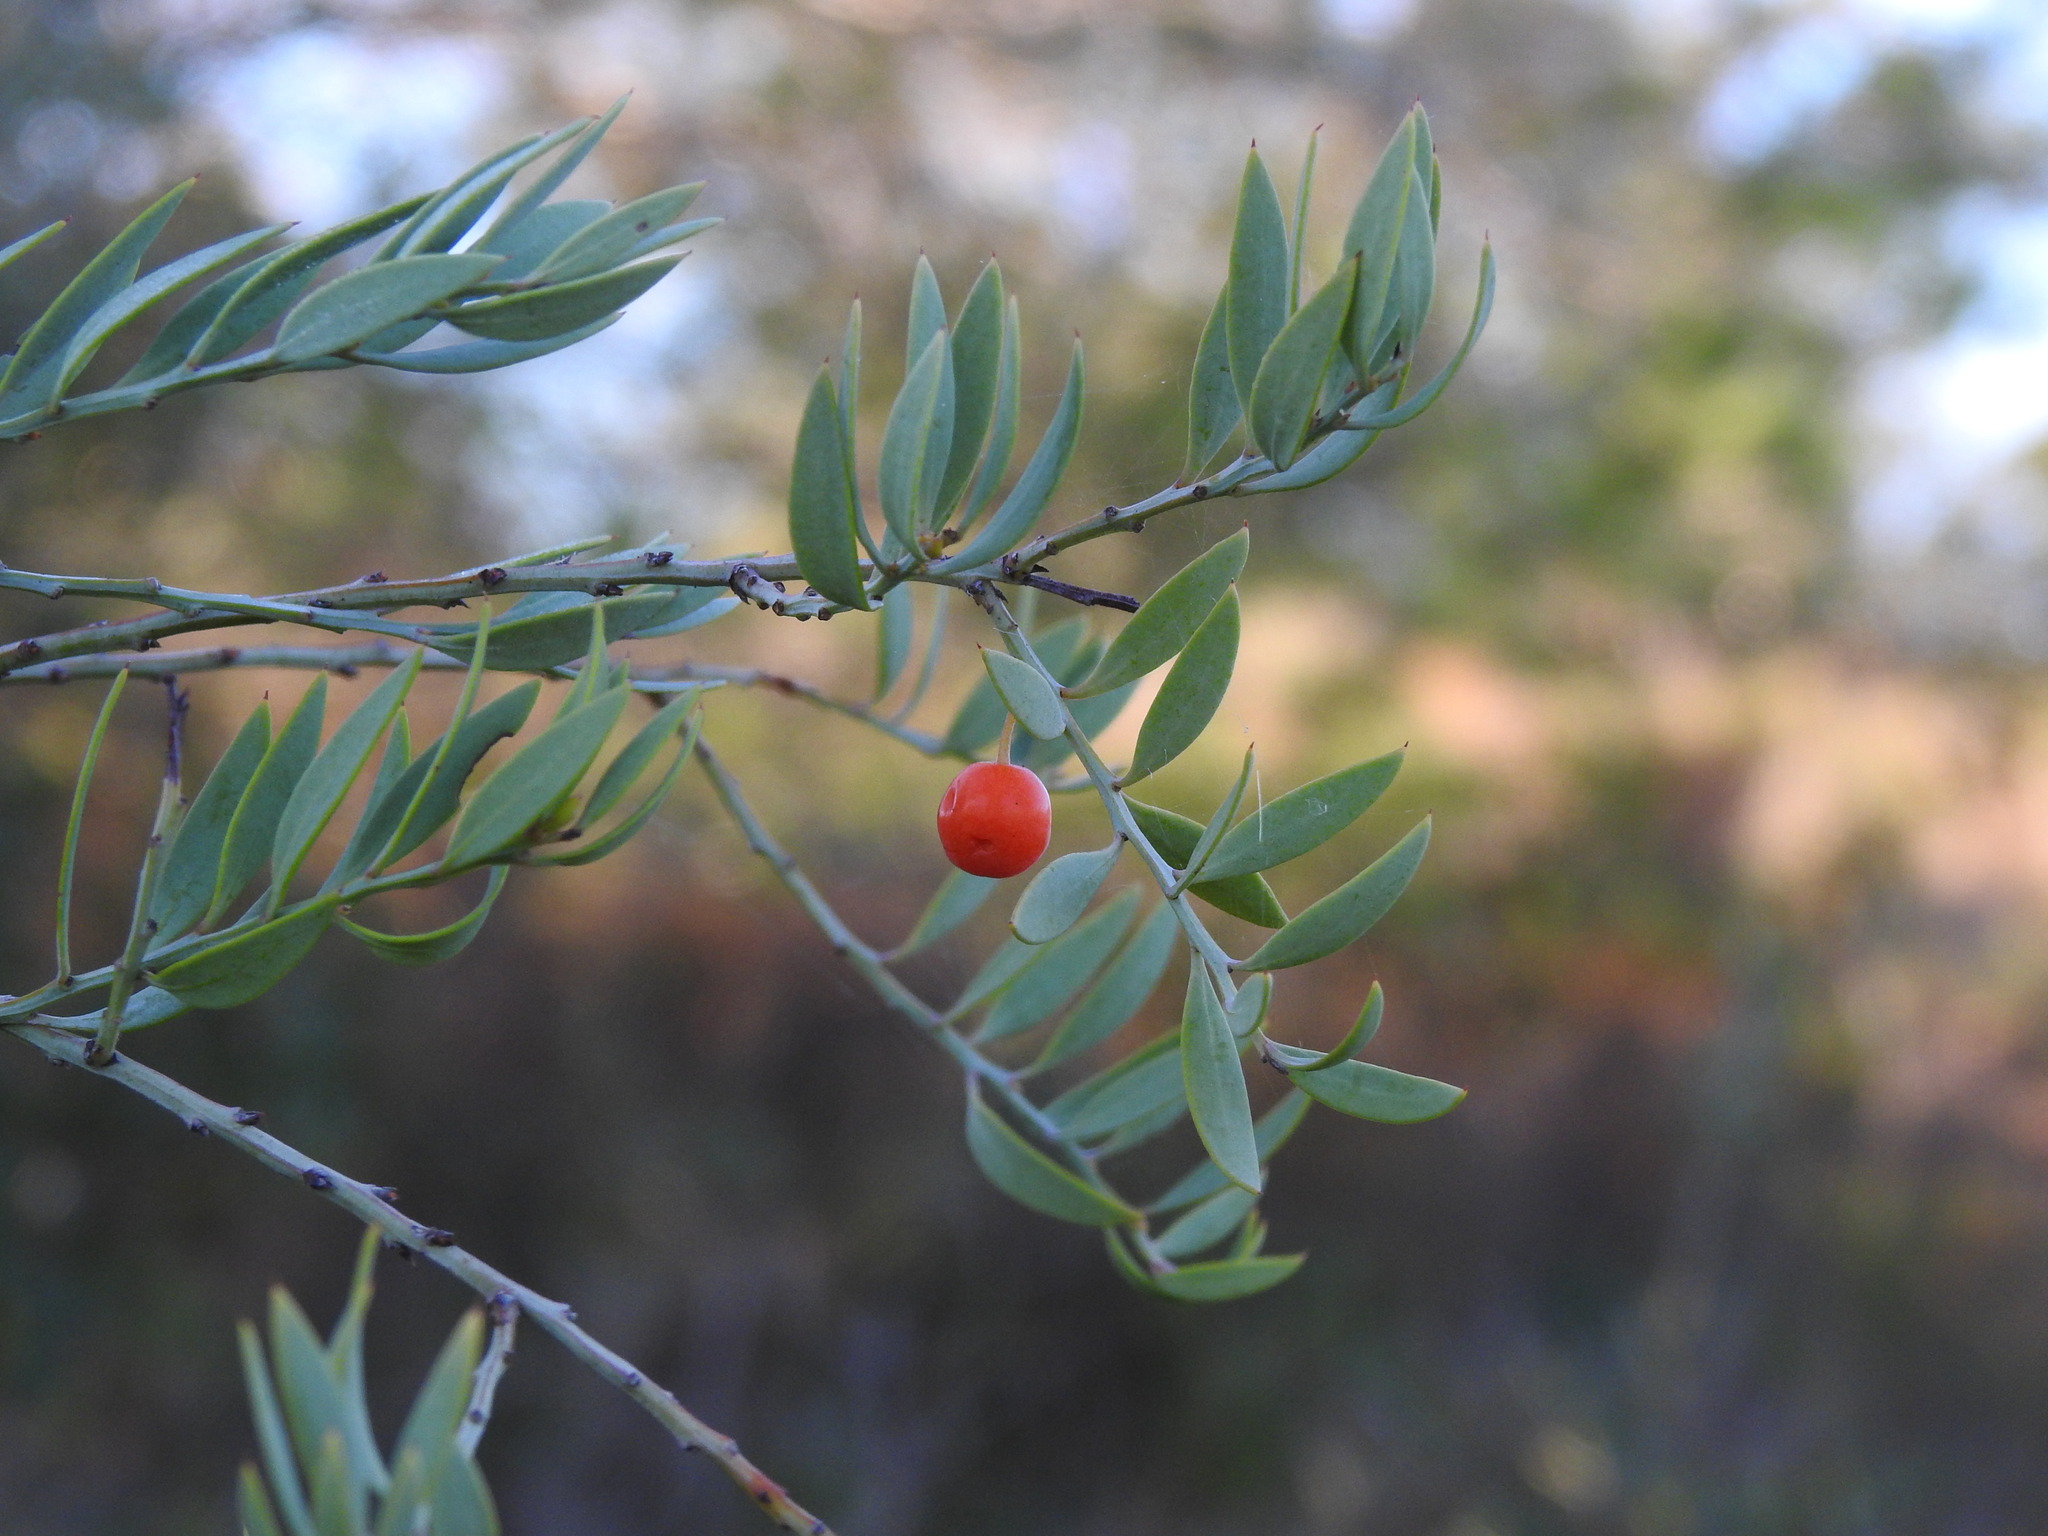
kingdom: Plantae
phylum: Tracheophyta
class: Magnoliopsida
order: Santalales
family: Santalaceae
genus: Osyris
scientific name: Osyris lanceolata
